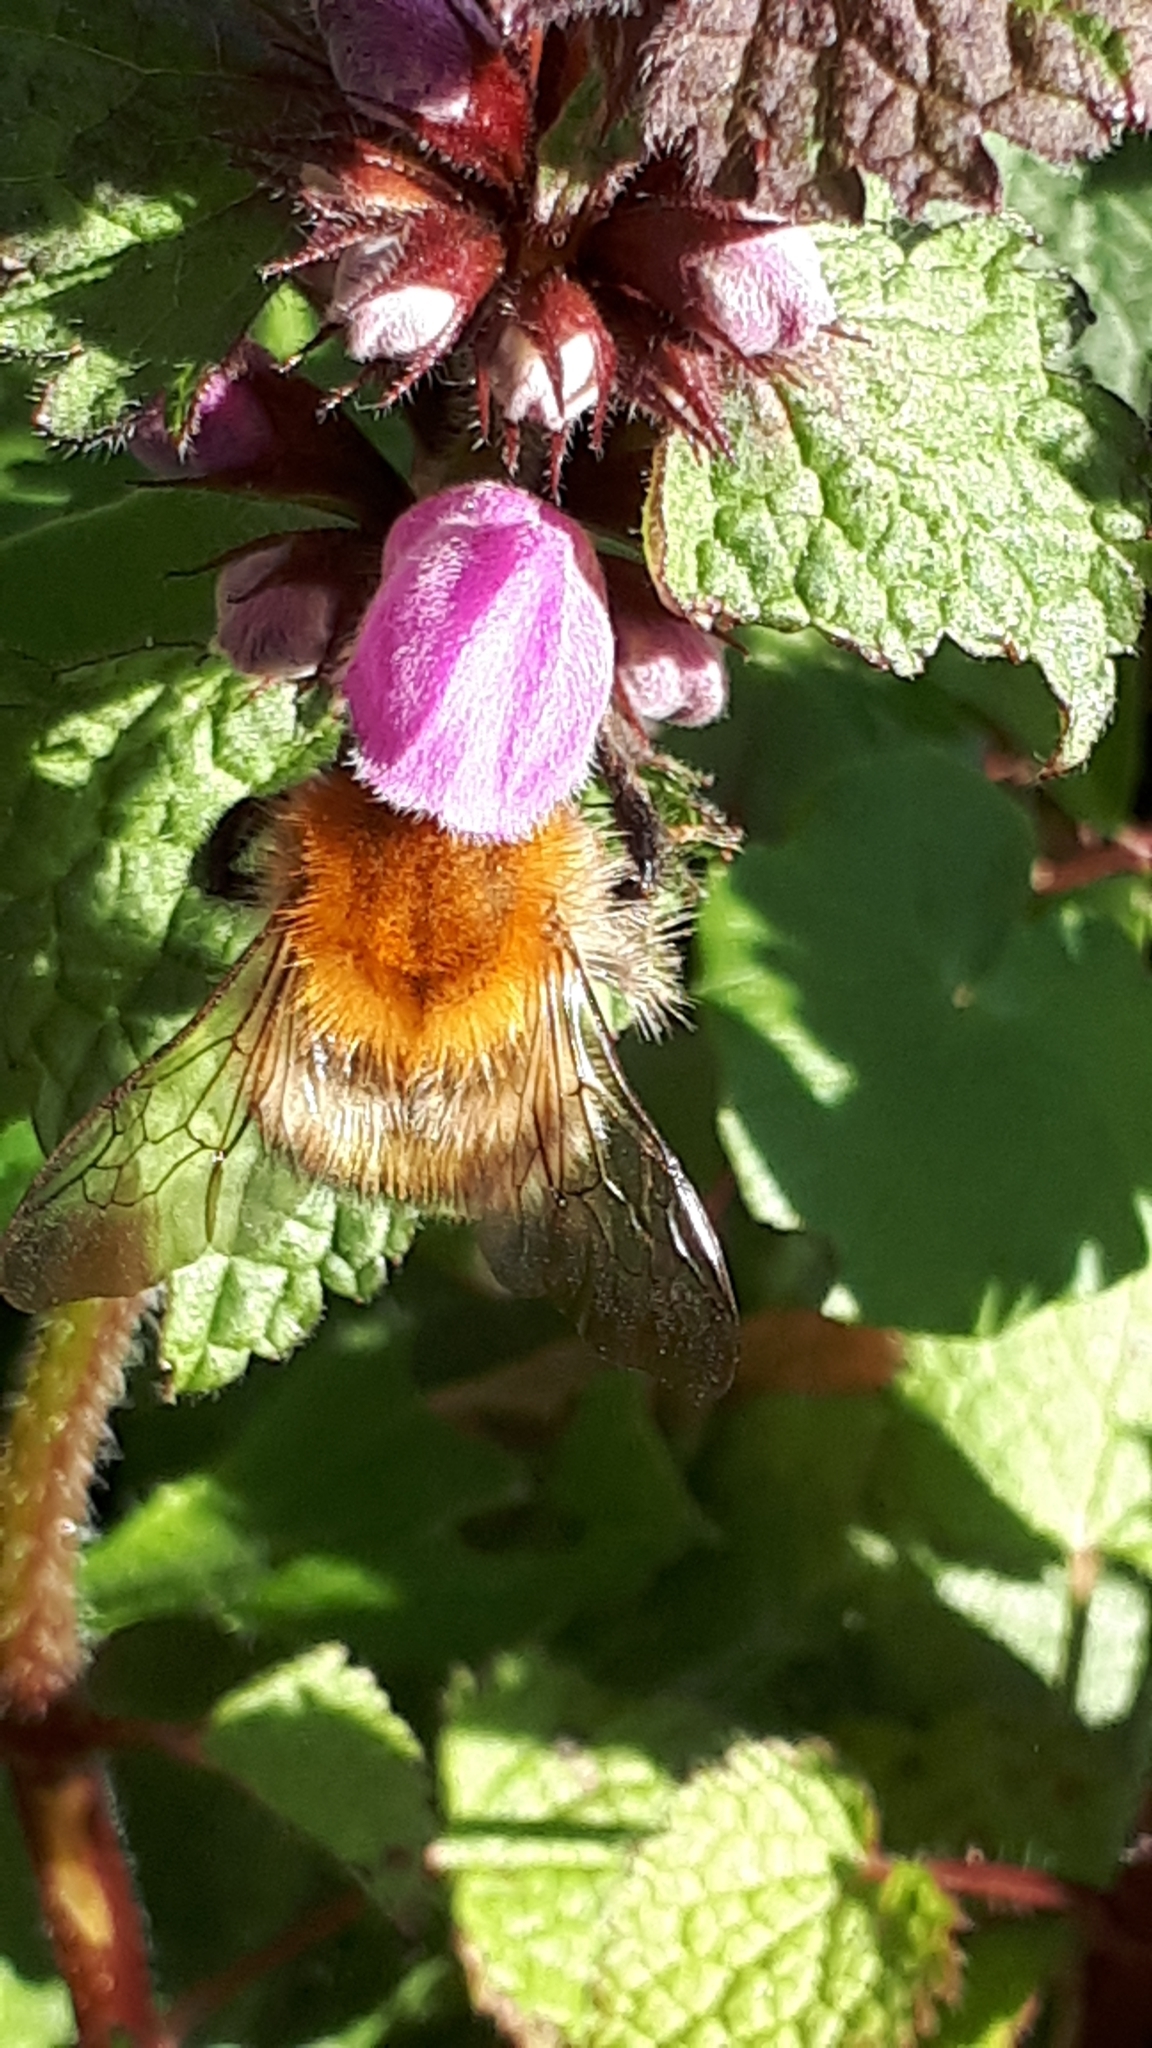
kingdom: Animalia
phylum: Arthropoda
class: Insecta
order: Hymenoptera
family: Apidae
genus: Bombus
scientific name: Bombus pascuorum
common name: Common carder bee
